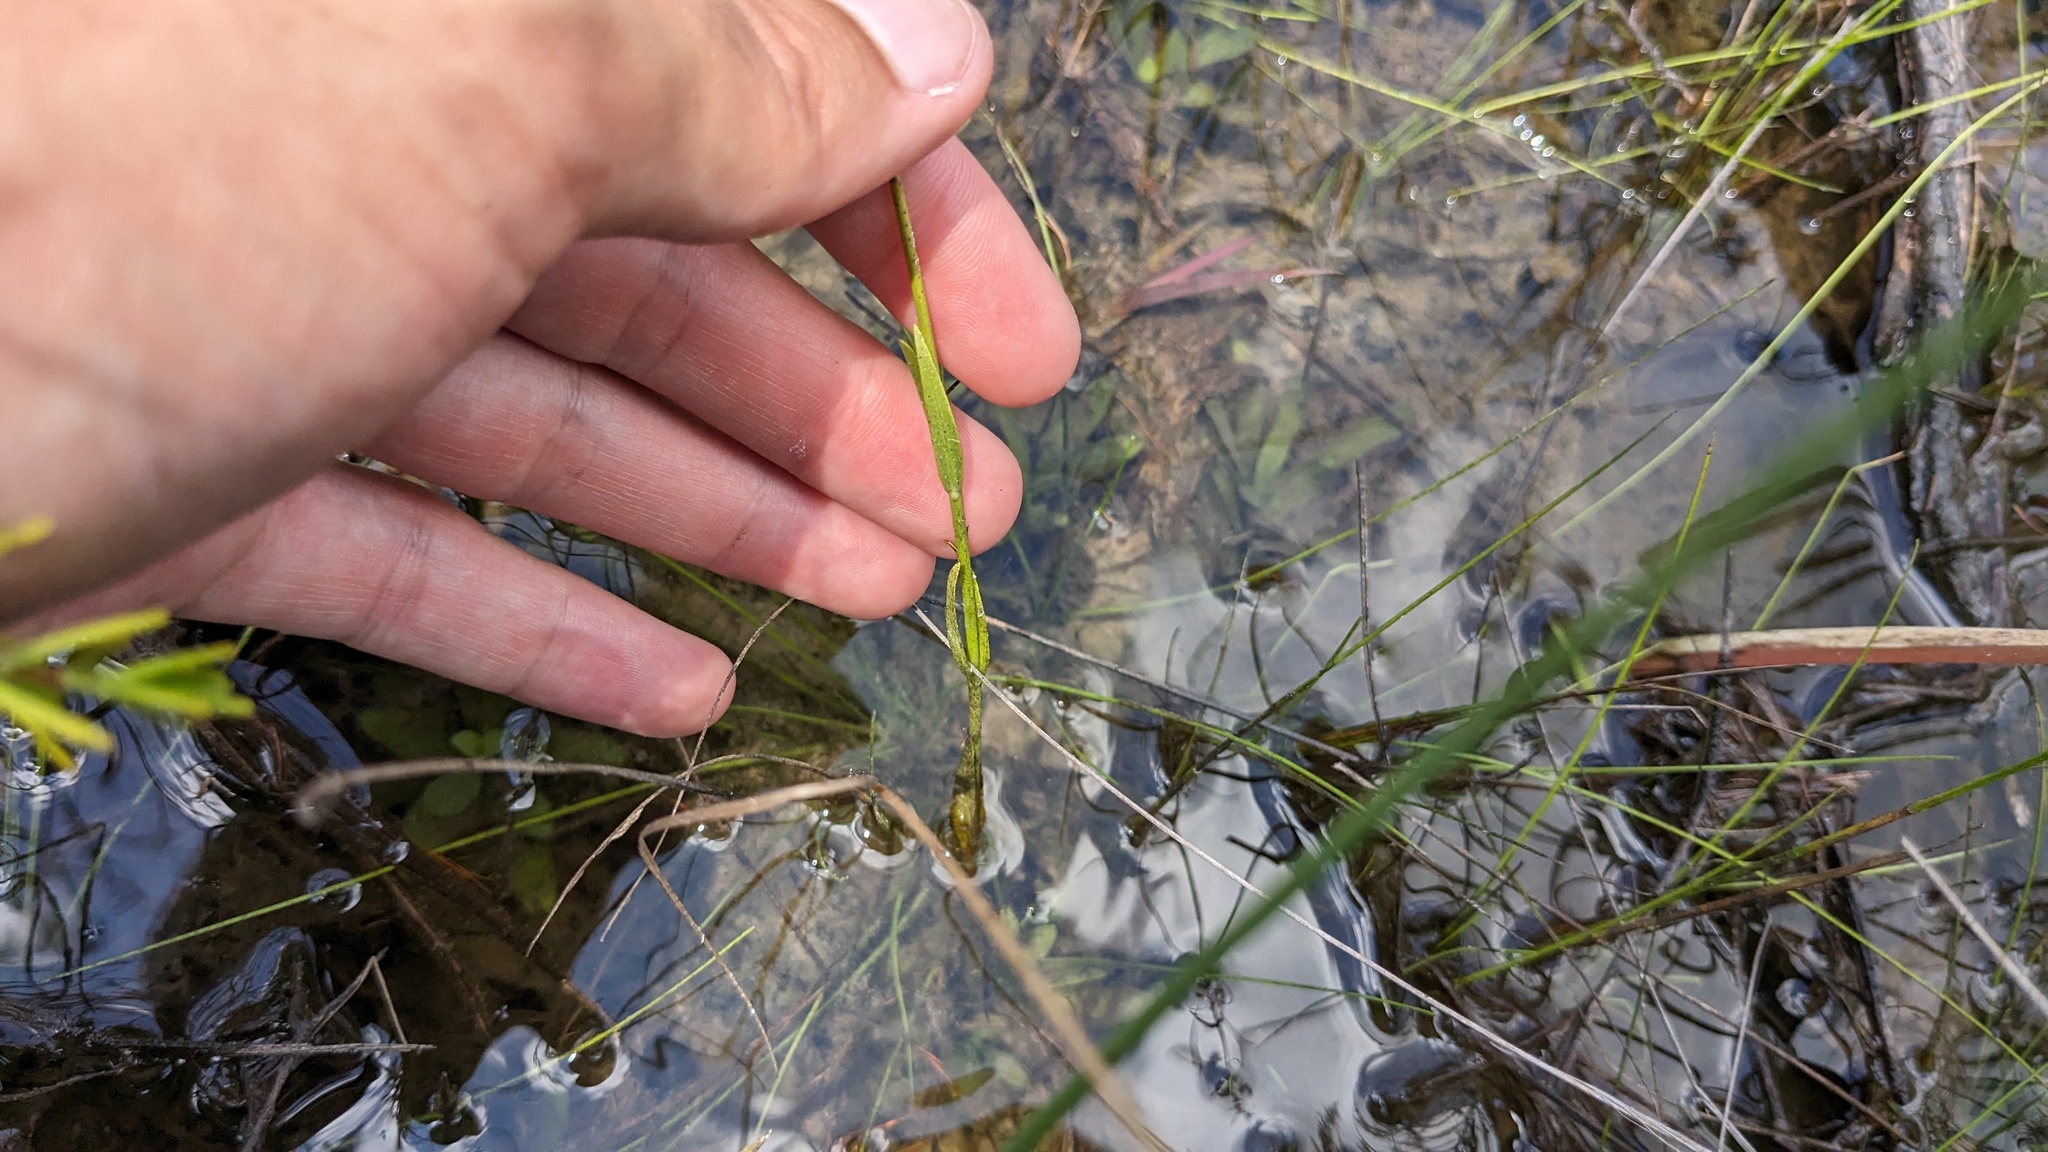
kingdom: Plantae
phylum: Tracheophyta
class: Magnoliopsida
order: Gentianales
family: Gentianaceae
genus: Sabatia
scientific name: Sabatia decandra
